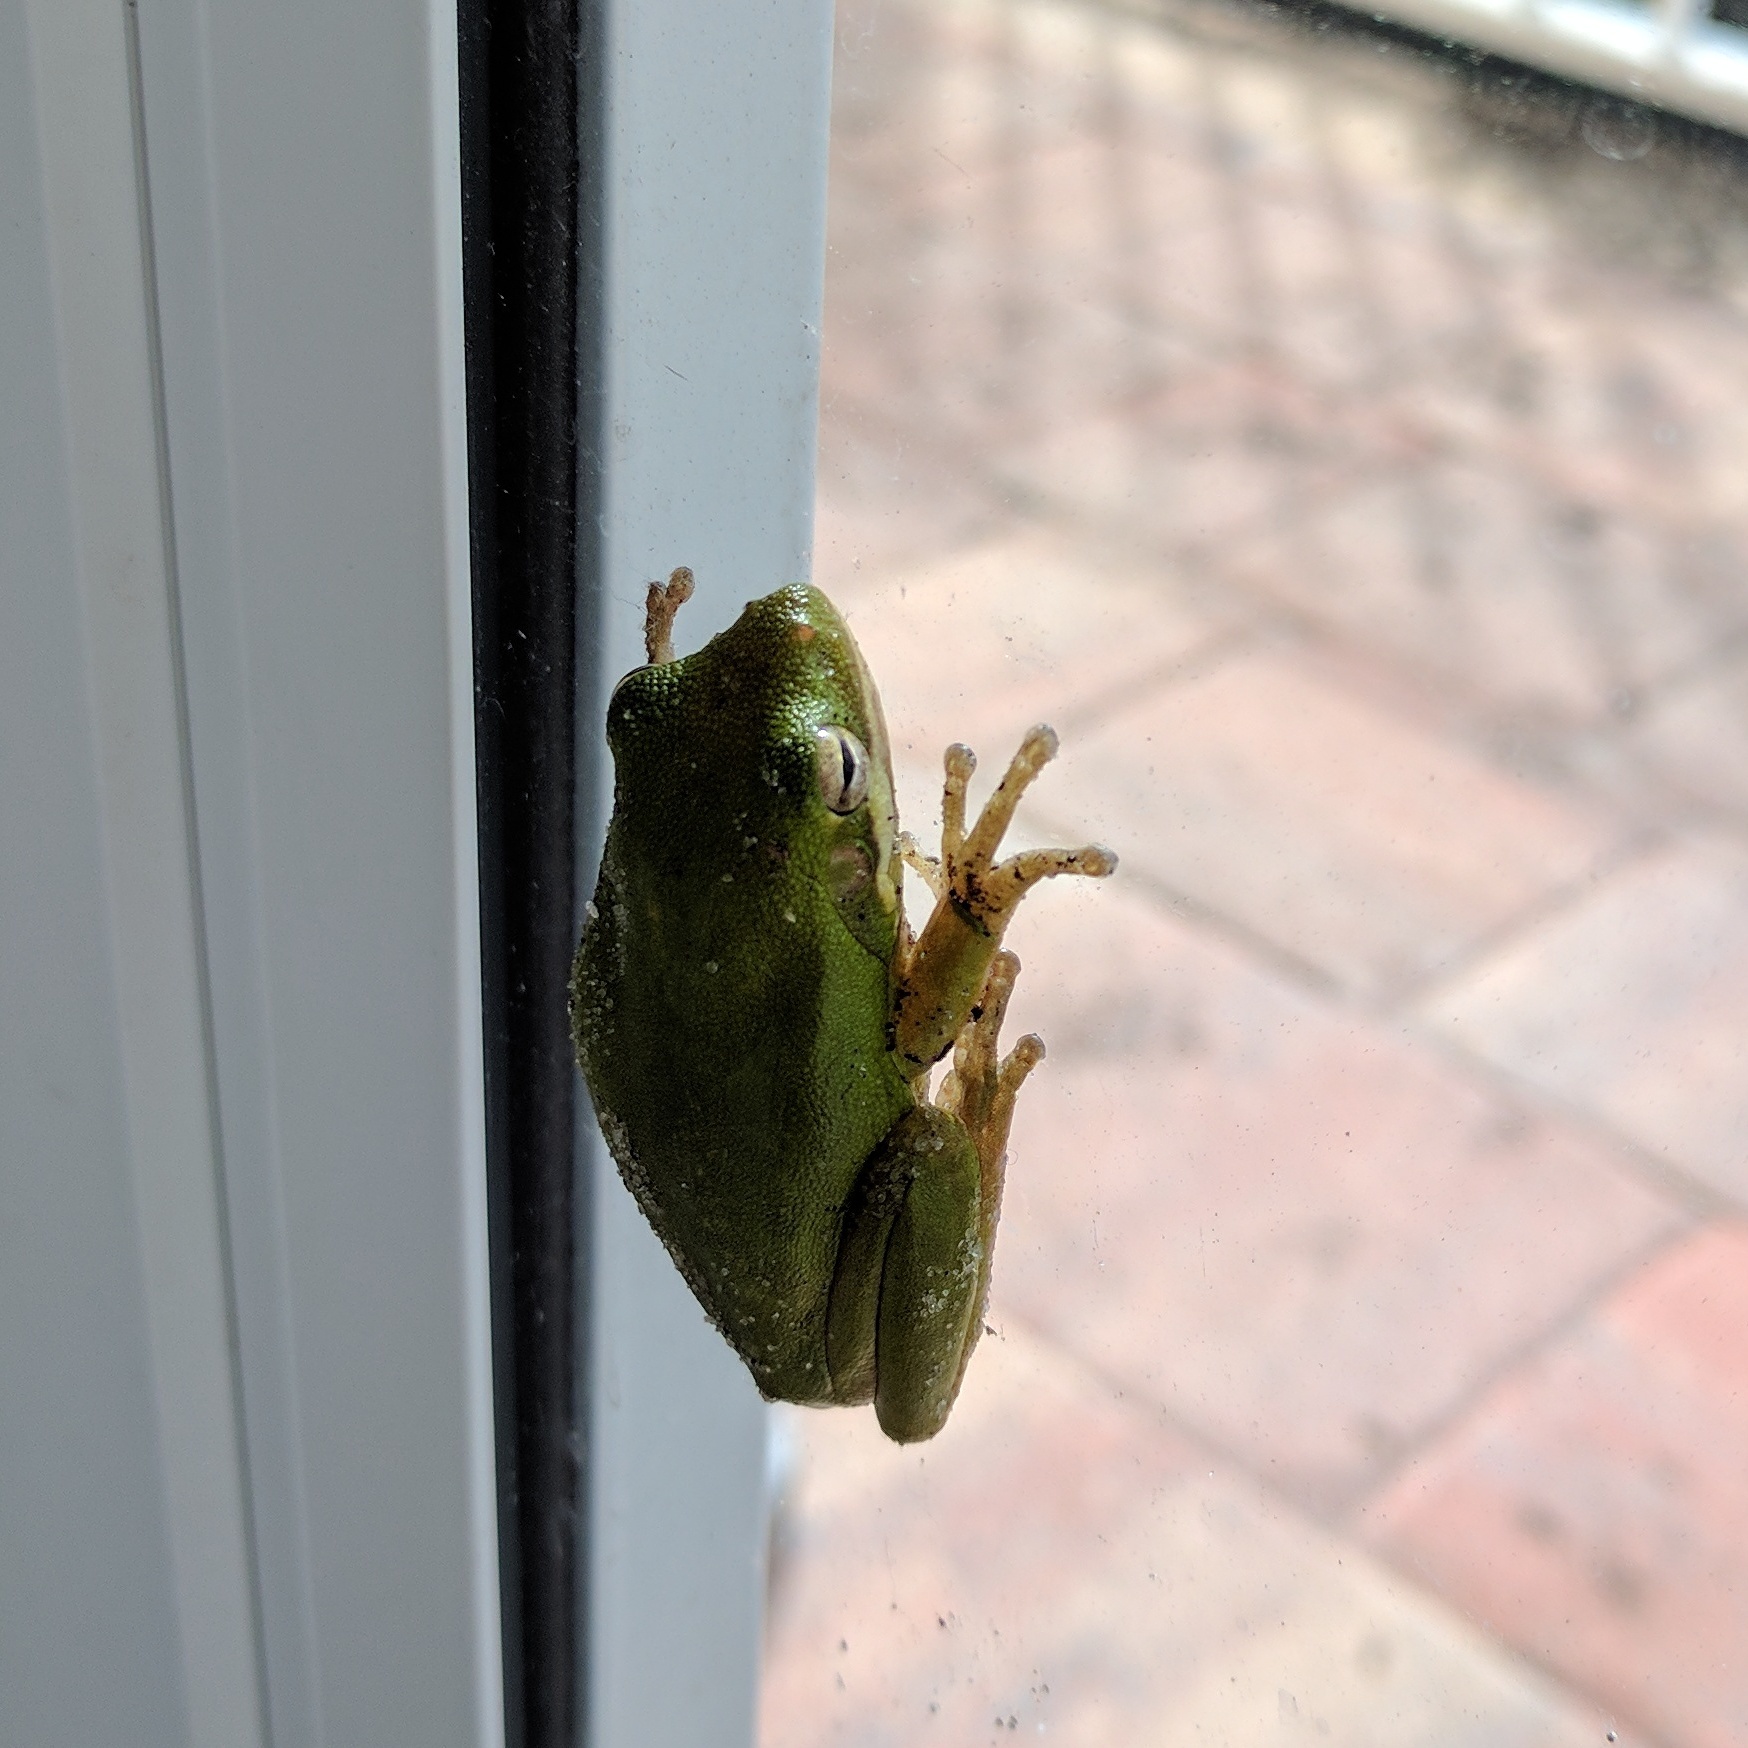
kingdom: Animalia
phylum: Chordata
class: Amphibia
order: Anura
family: Hylidae
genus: Dryophytes
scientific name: Dryophytes squirellus
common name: Squirrel treefrog
